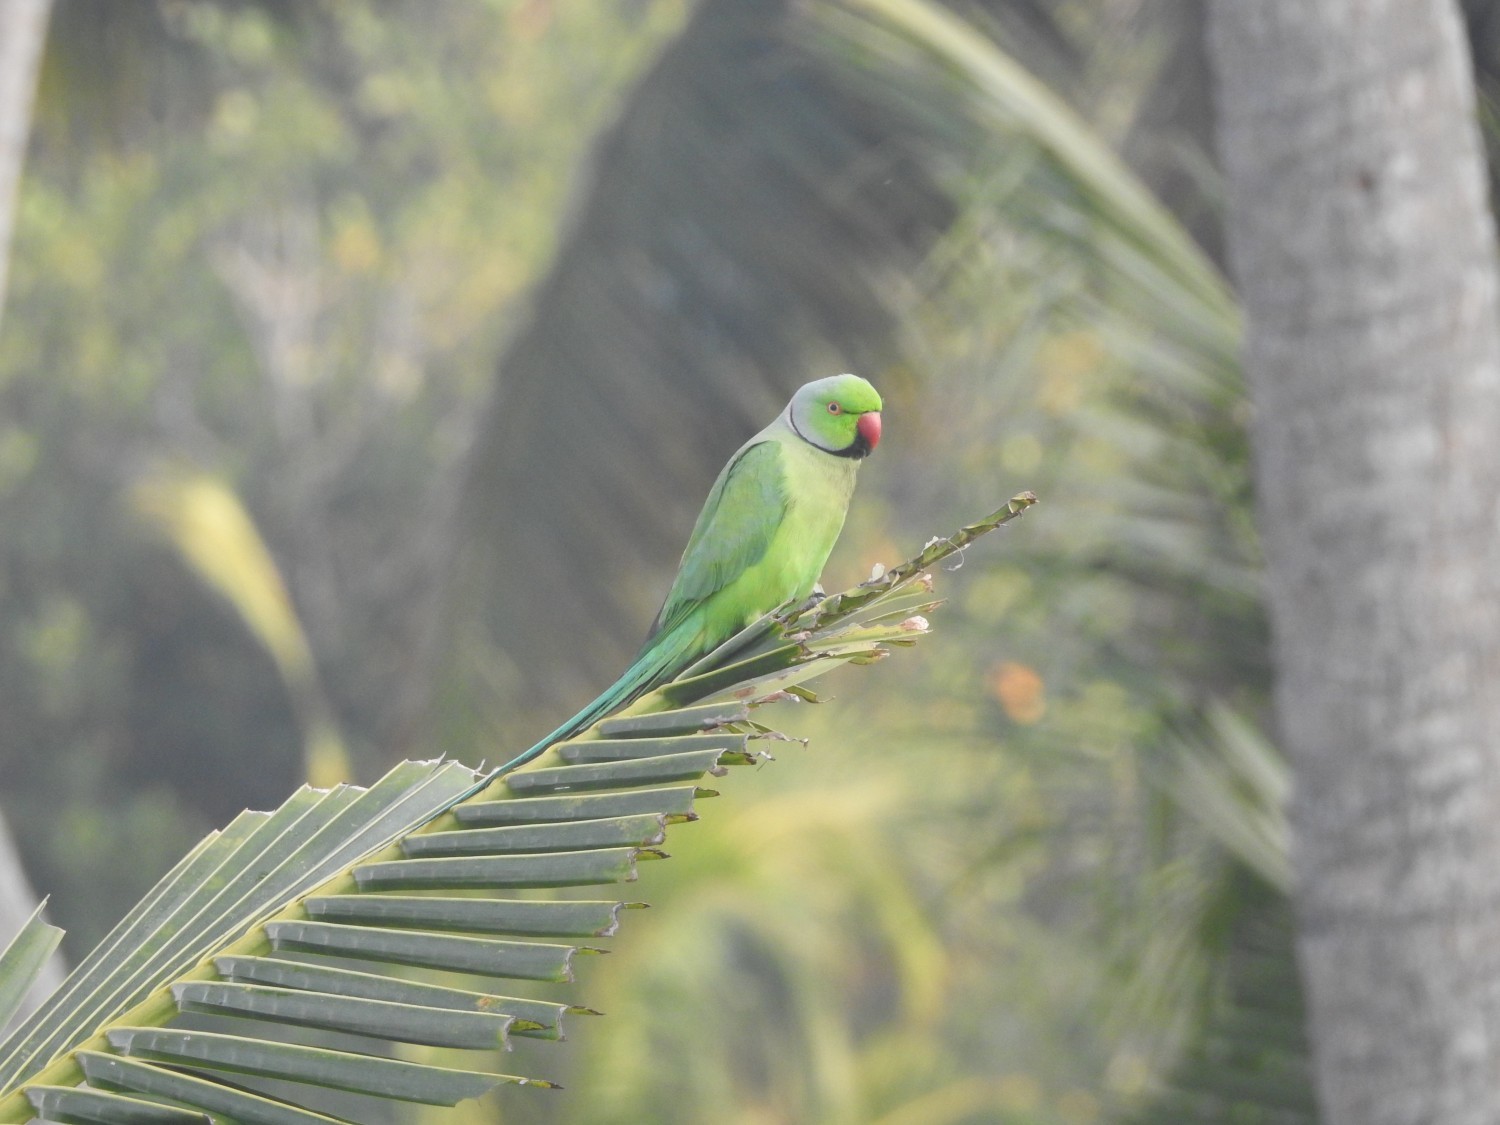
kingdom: Animalia
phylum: Chordata
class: Aves
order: Psittaciformes
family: Psittacidae
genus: Psittacula
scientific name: Psittacula krameri
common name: Rose-ringed parakeet
